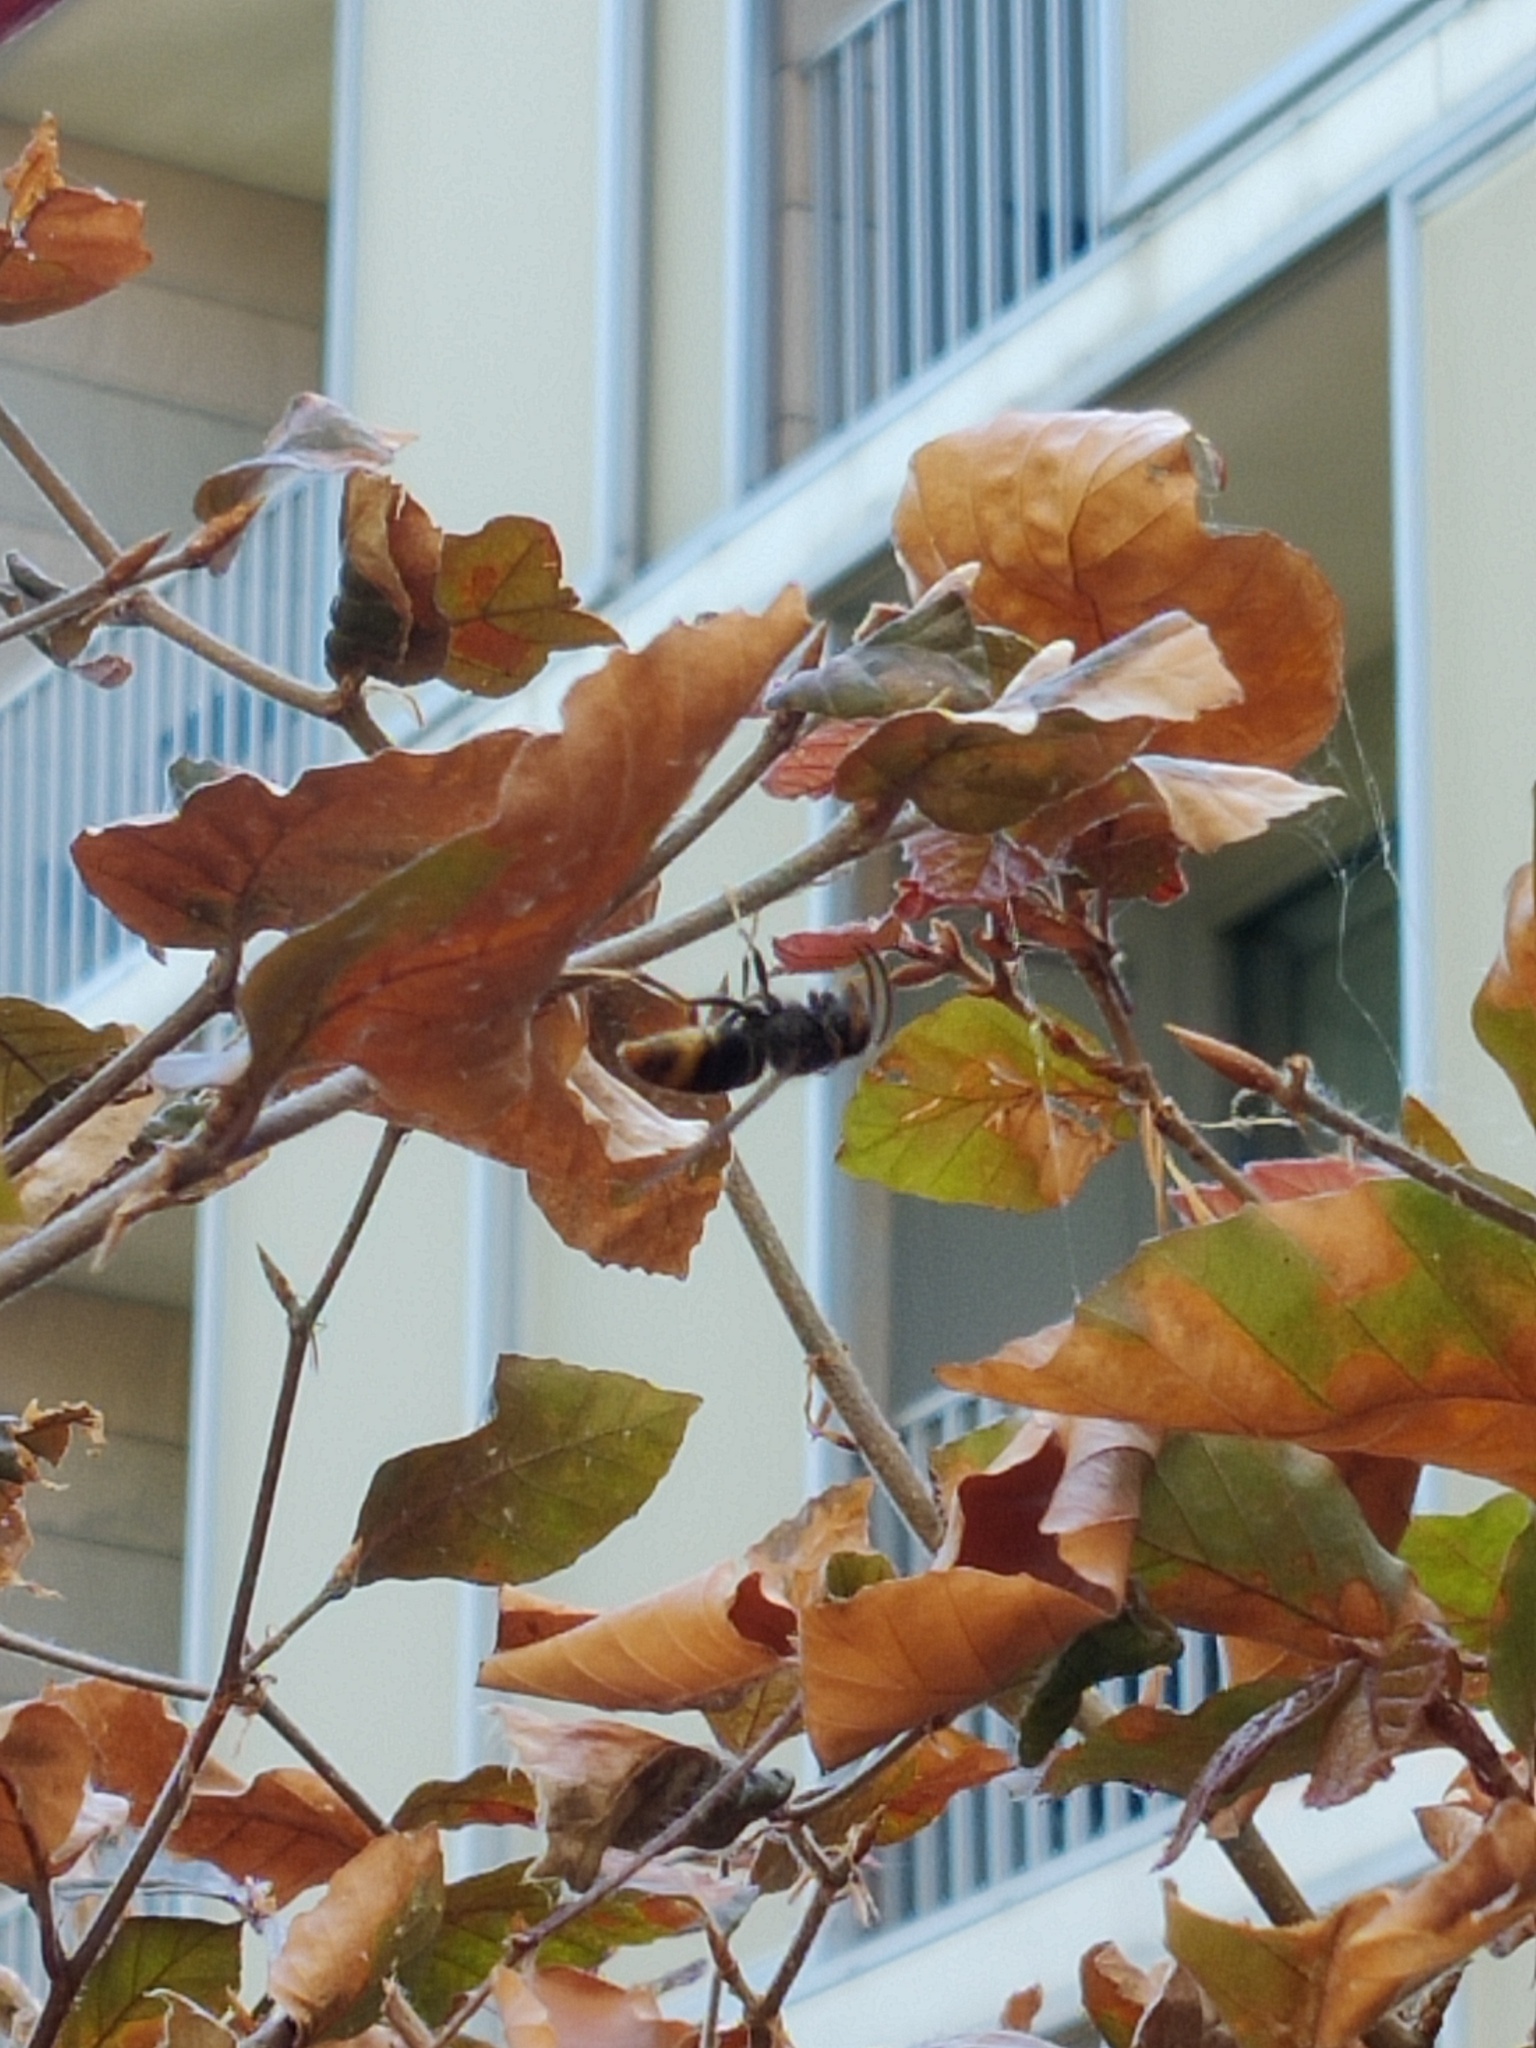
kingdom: Animalia
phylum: Arthropoda
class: Insecta
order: Hymenoptera
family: Vespidae
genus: Vespa
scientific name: Vespa velutina
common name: Asian hornet
